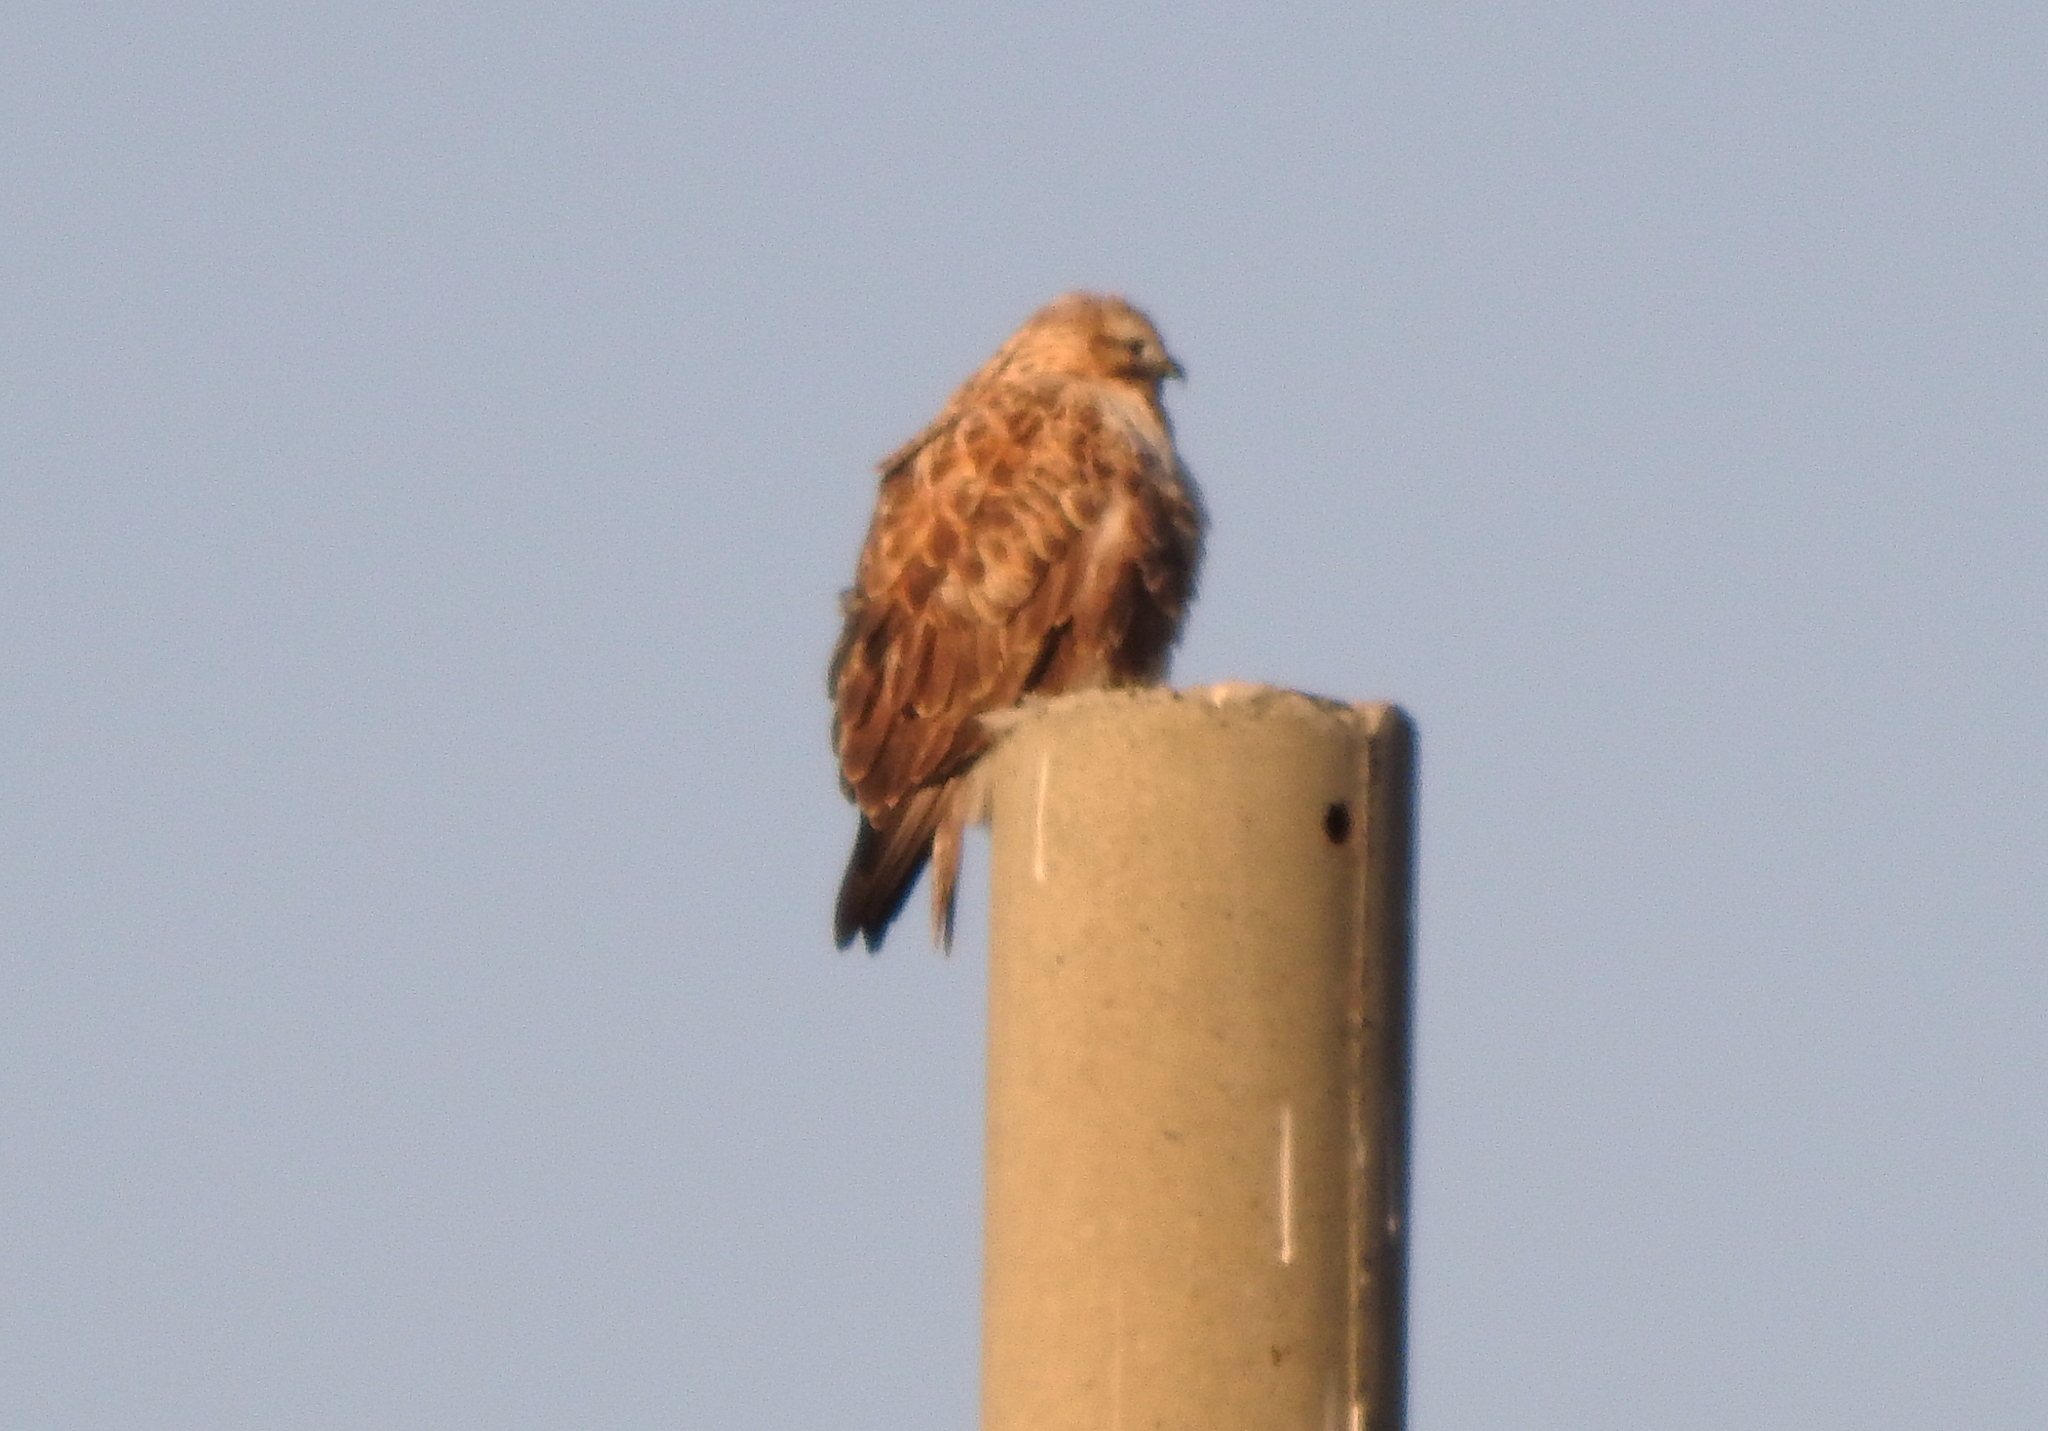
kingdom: Animalia
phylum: Chordata
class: Aves
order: Accipitriformes
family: Accipitridae
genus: Buteo
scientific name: Buteo hemilasius
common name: Upland buzzard
